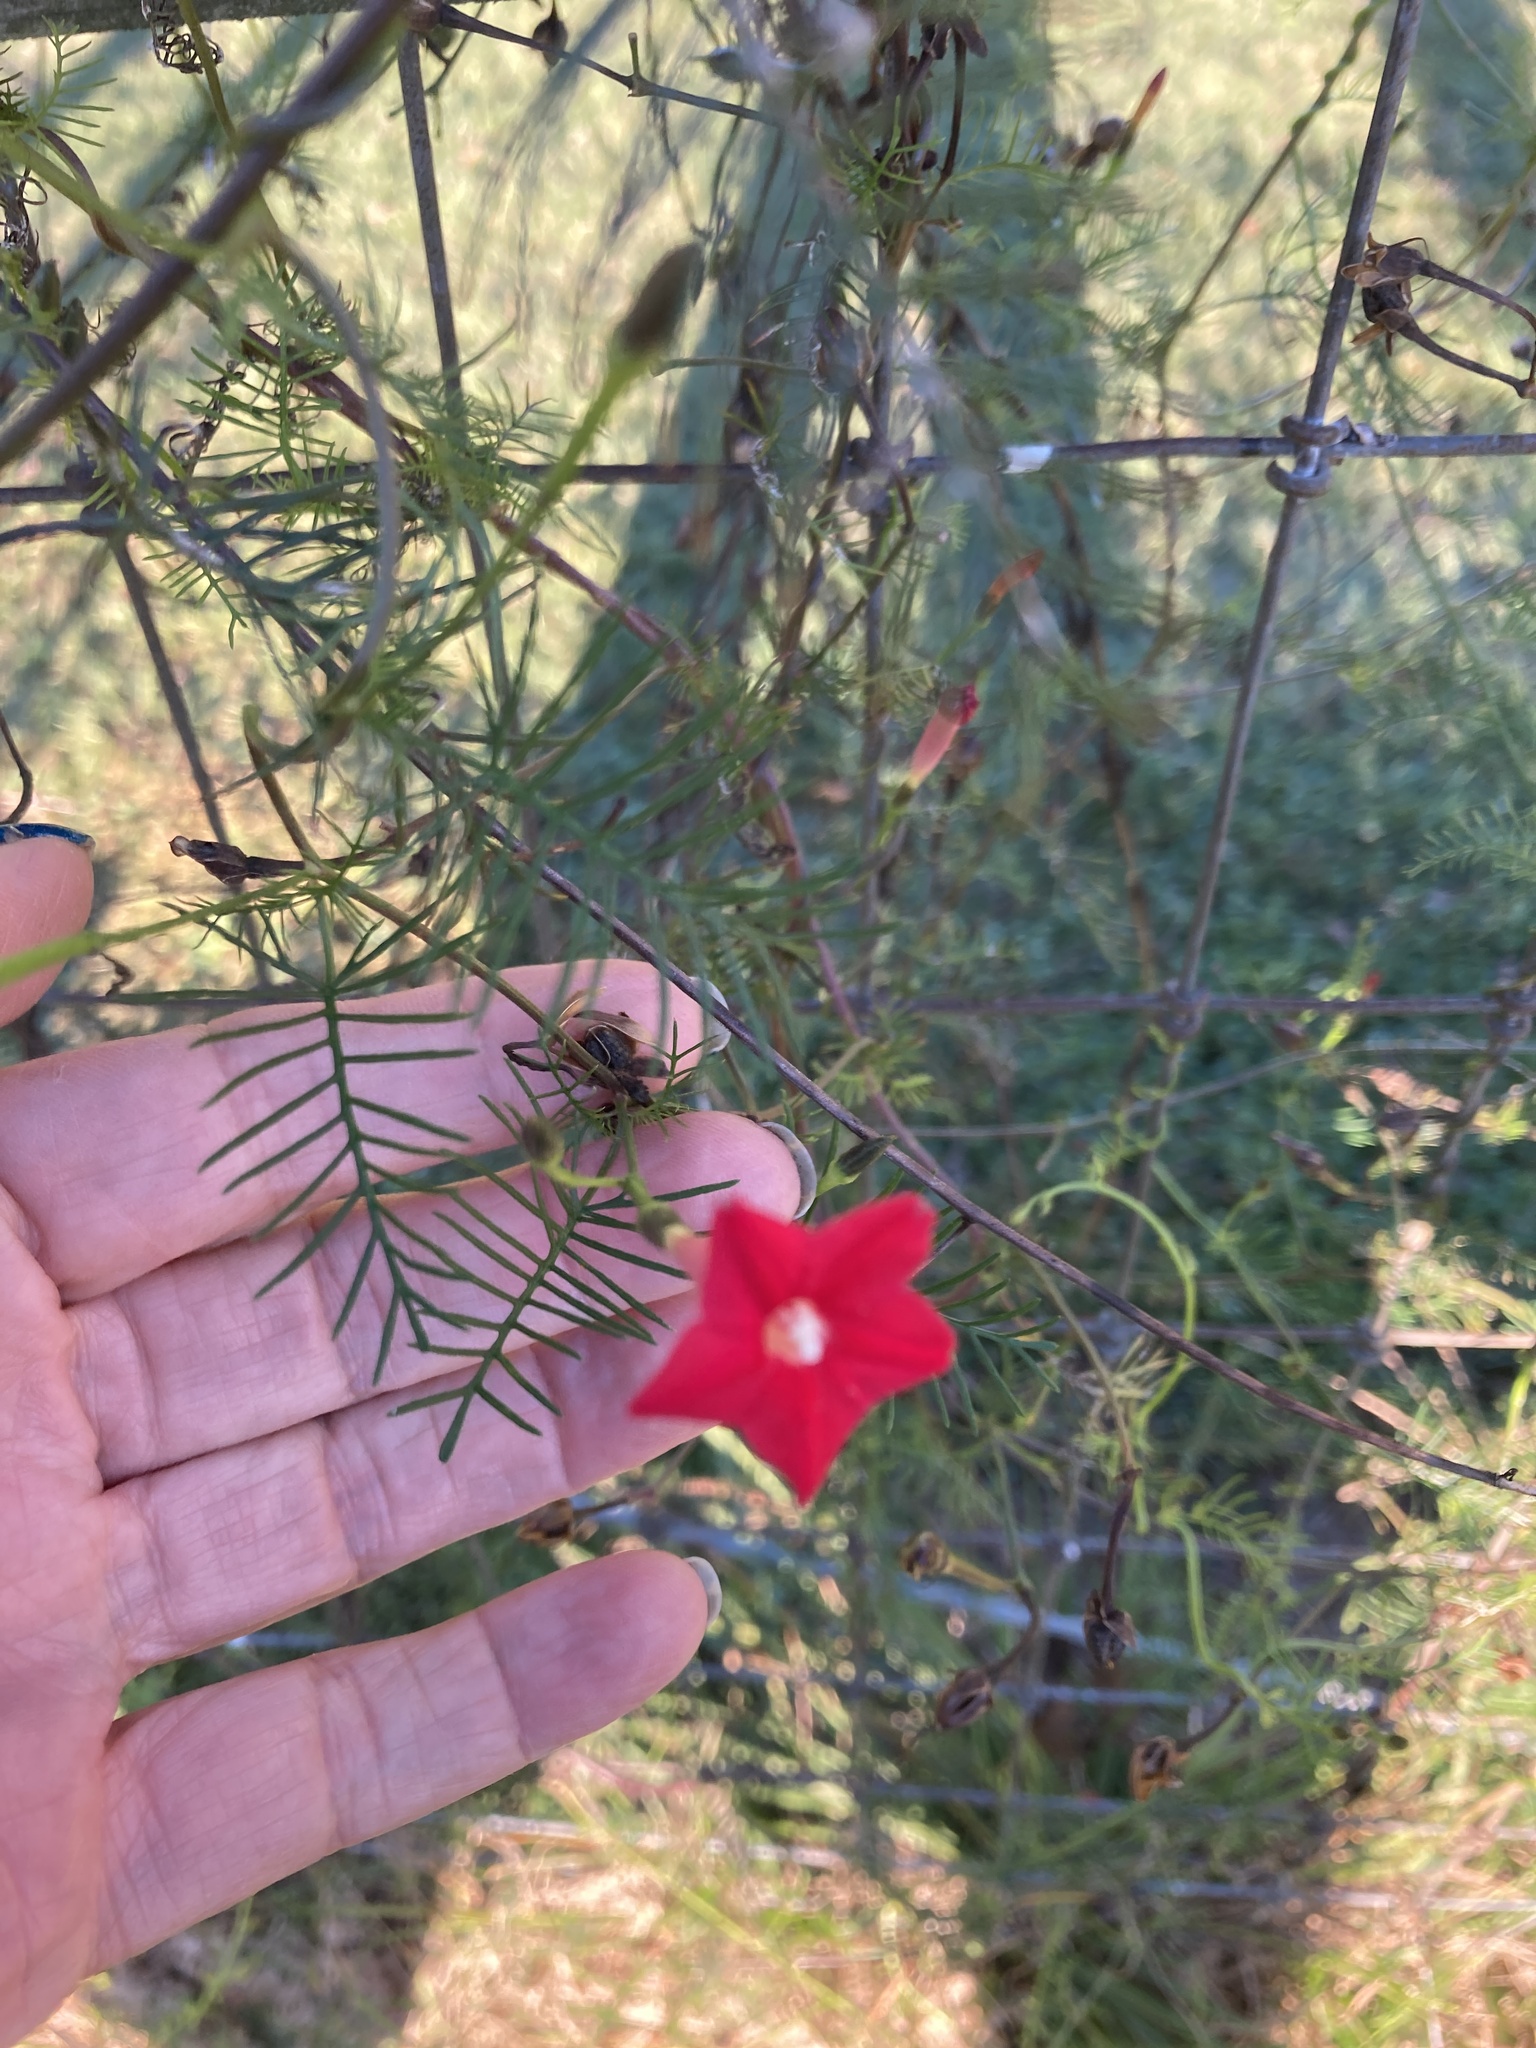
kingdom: Plantae
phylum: Tracheophyta
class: Magnoliopsida
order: Solanales
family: Convolvulaceae
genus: Ipomoea
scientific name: Ipomoea quamoclit
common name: Cypress vine
